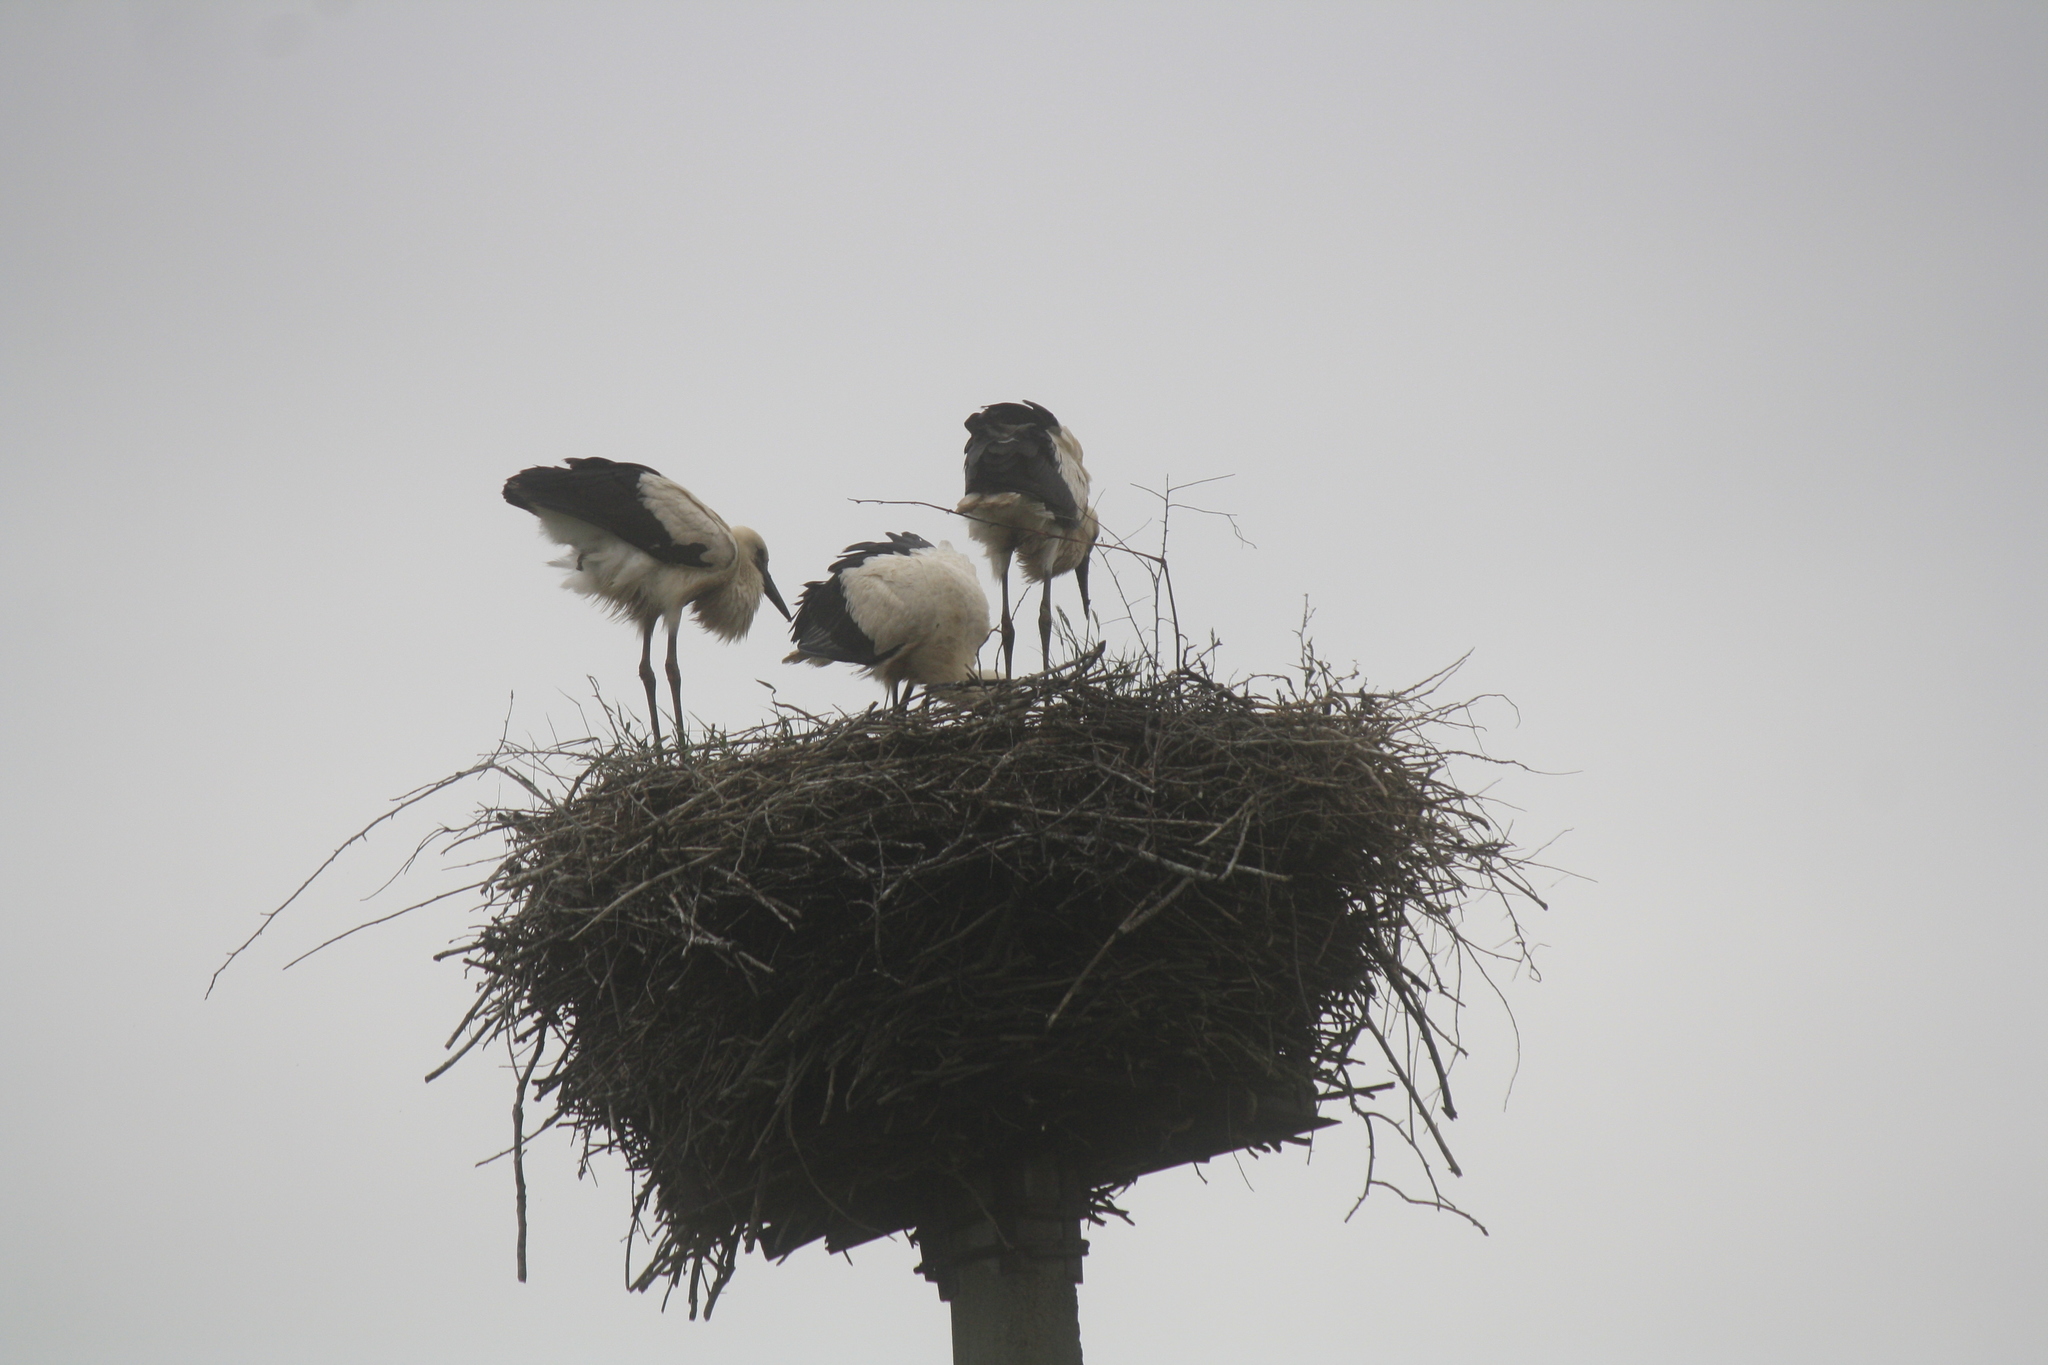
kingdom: Animalia
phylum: Chordata
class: Aves
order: Ciconiiformes
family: Ciconiidae
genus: Ciconia
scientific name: Ciconia ciconia
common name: White stork
